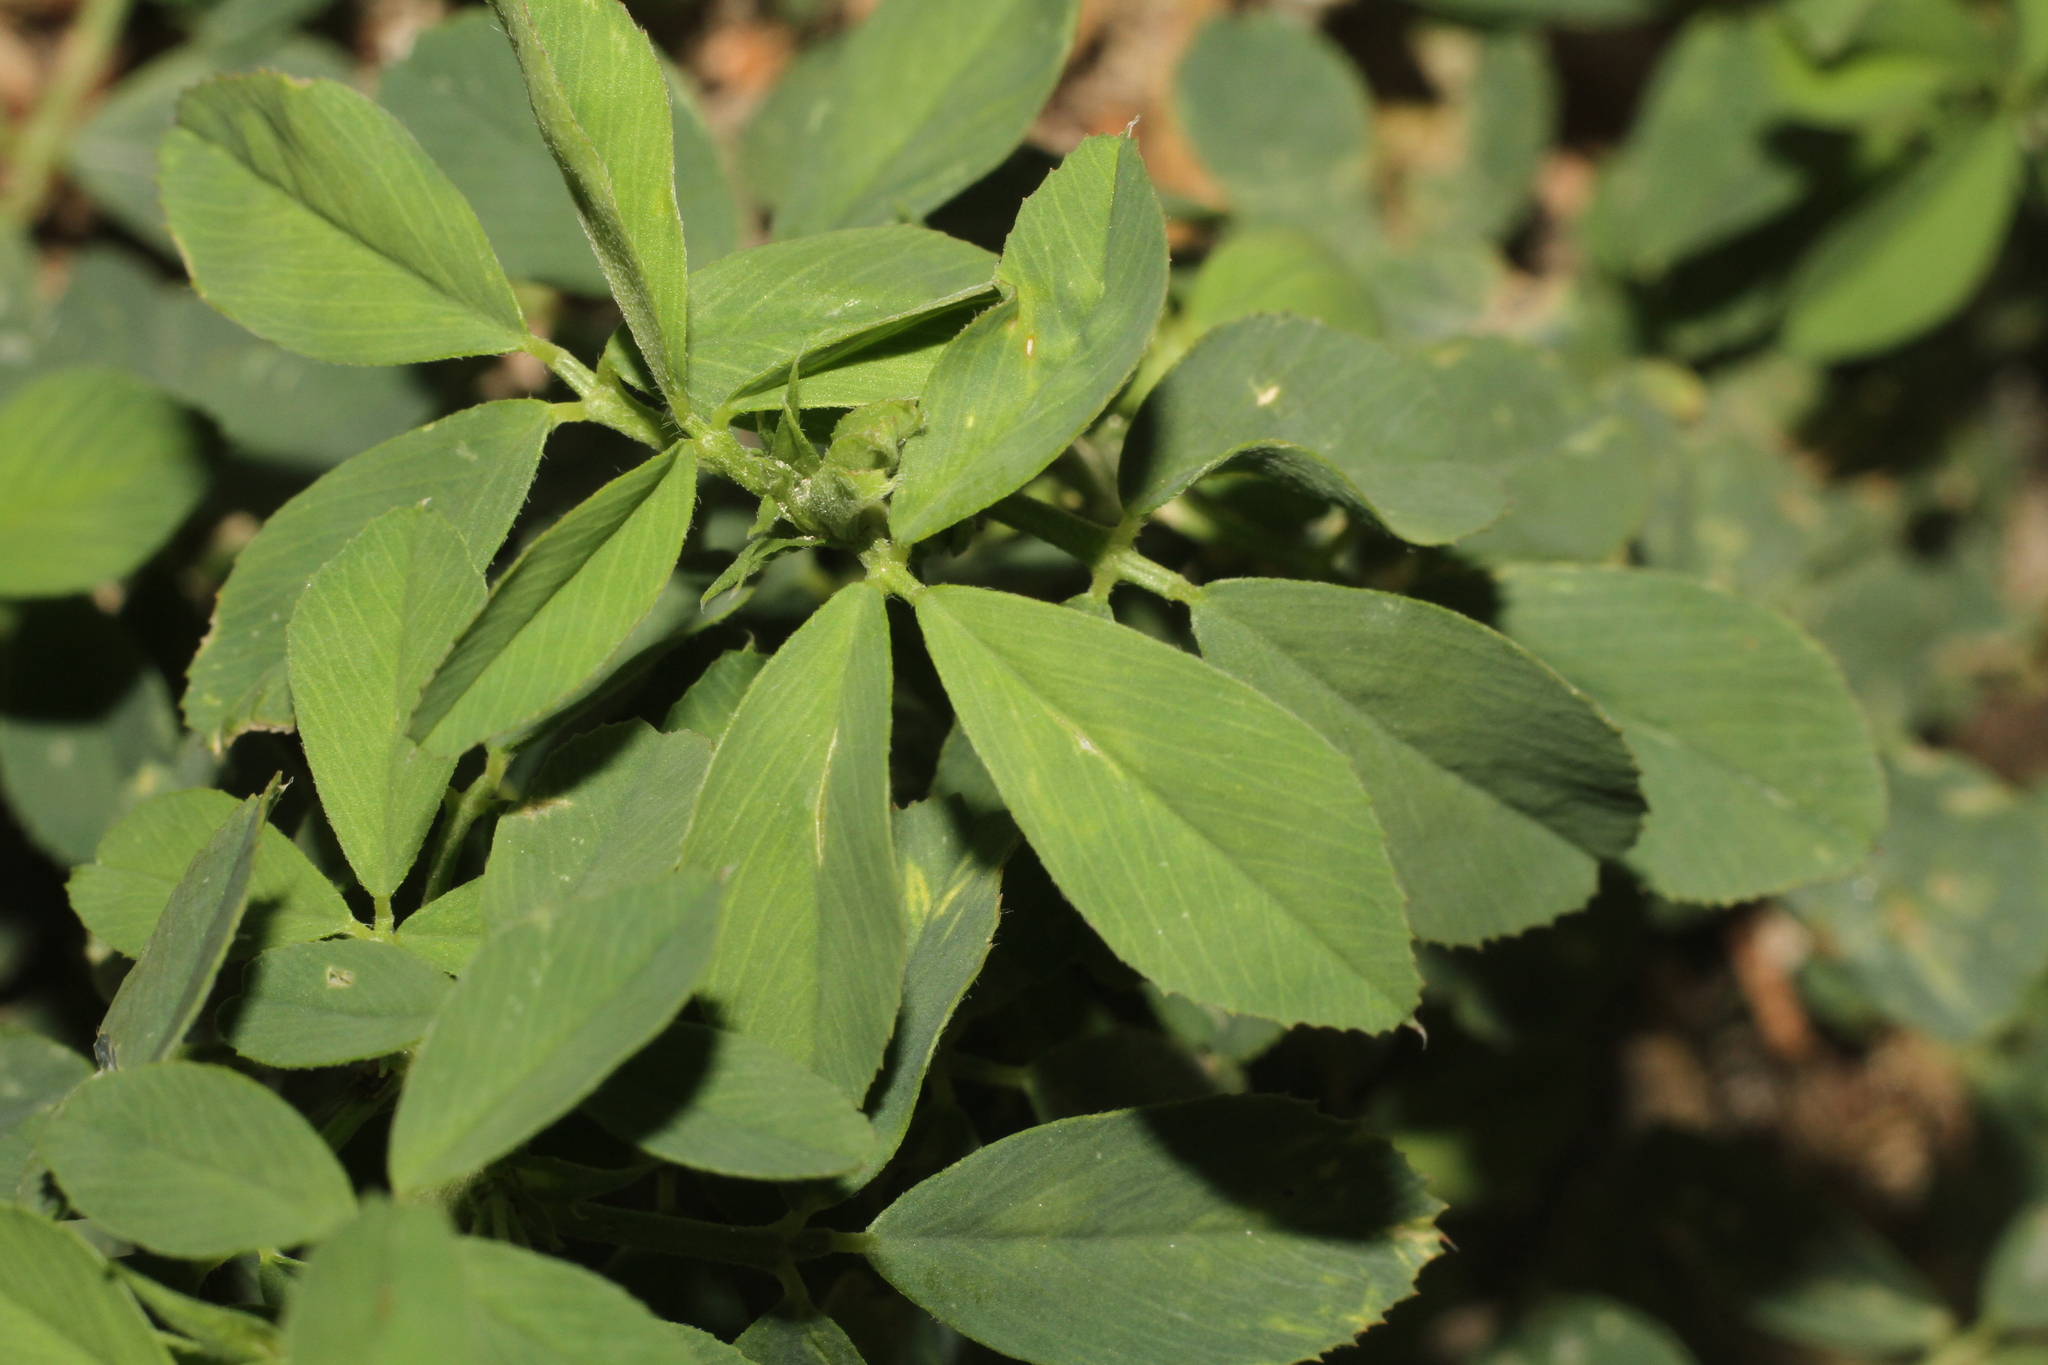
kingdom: Plantae
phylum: Tracheophyta
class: Magnoliopsida
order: Fabales
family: Fabaceae
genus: Medicago
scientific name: Medicago sativa
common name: Alfalfa
